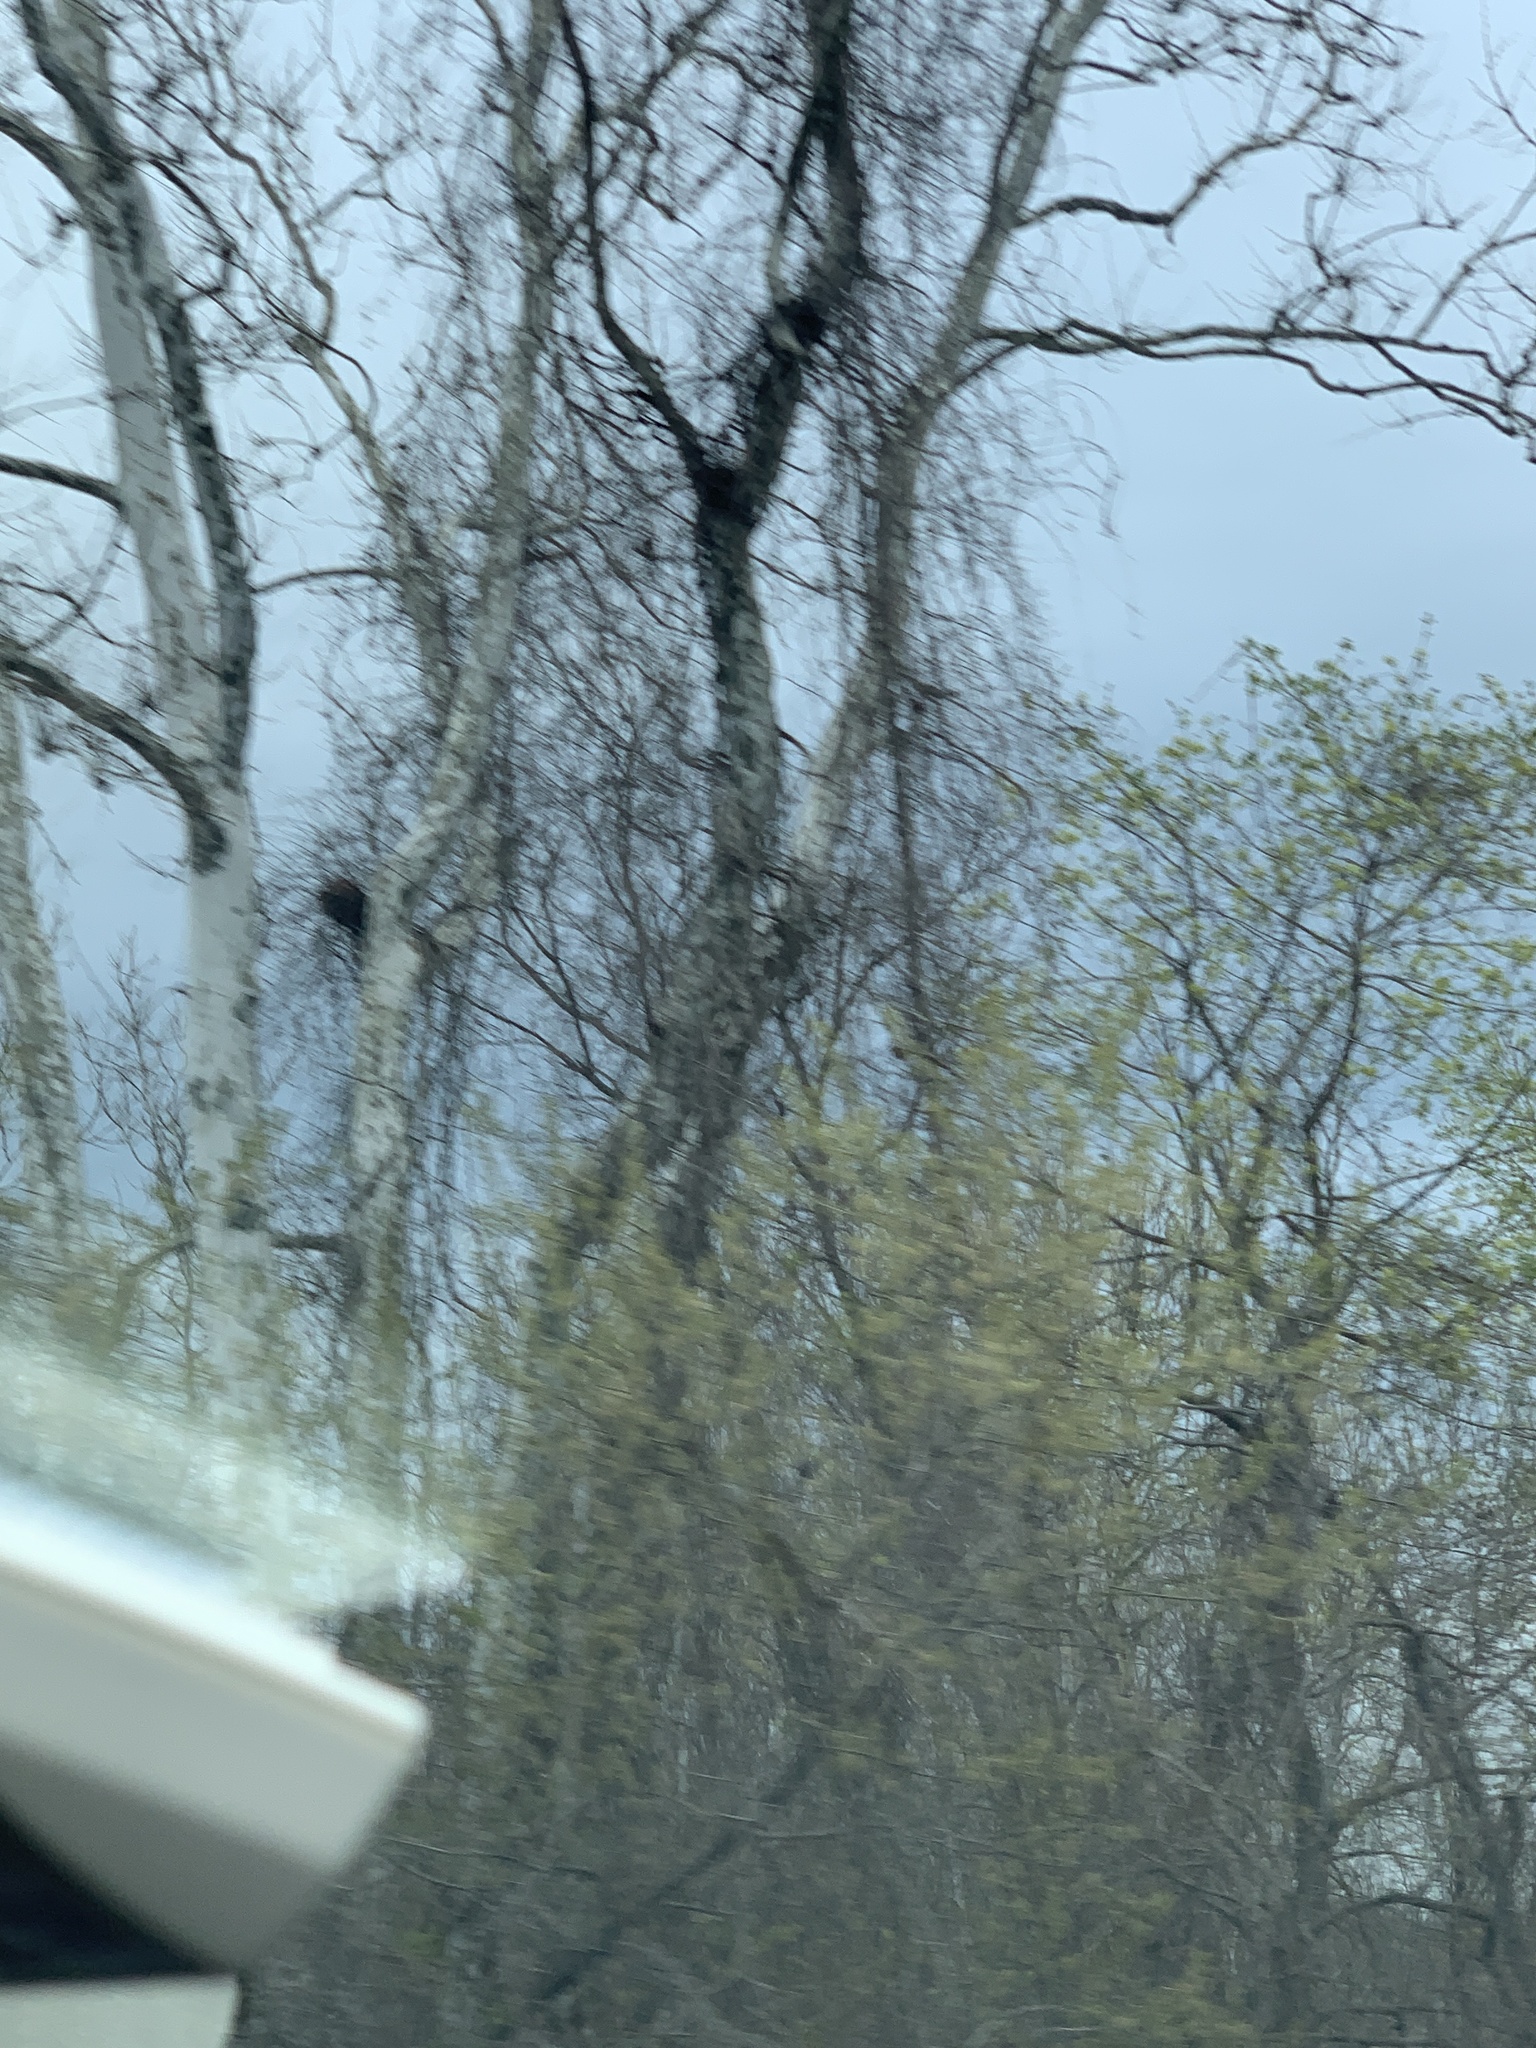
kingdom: Plantae
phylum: Tracheophyta
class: Magnoliopsida
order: Proteales
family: Platanaceae
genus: Platanus
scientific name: Platanus occidentalis
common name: American sycamore
